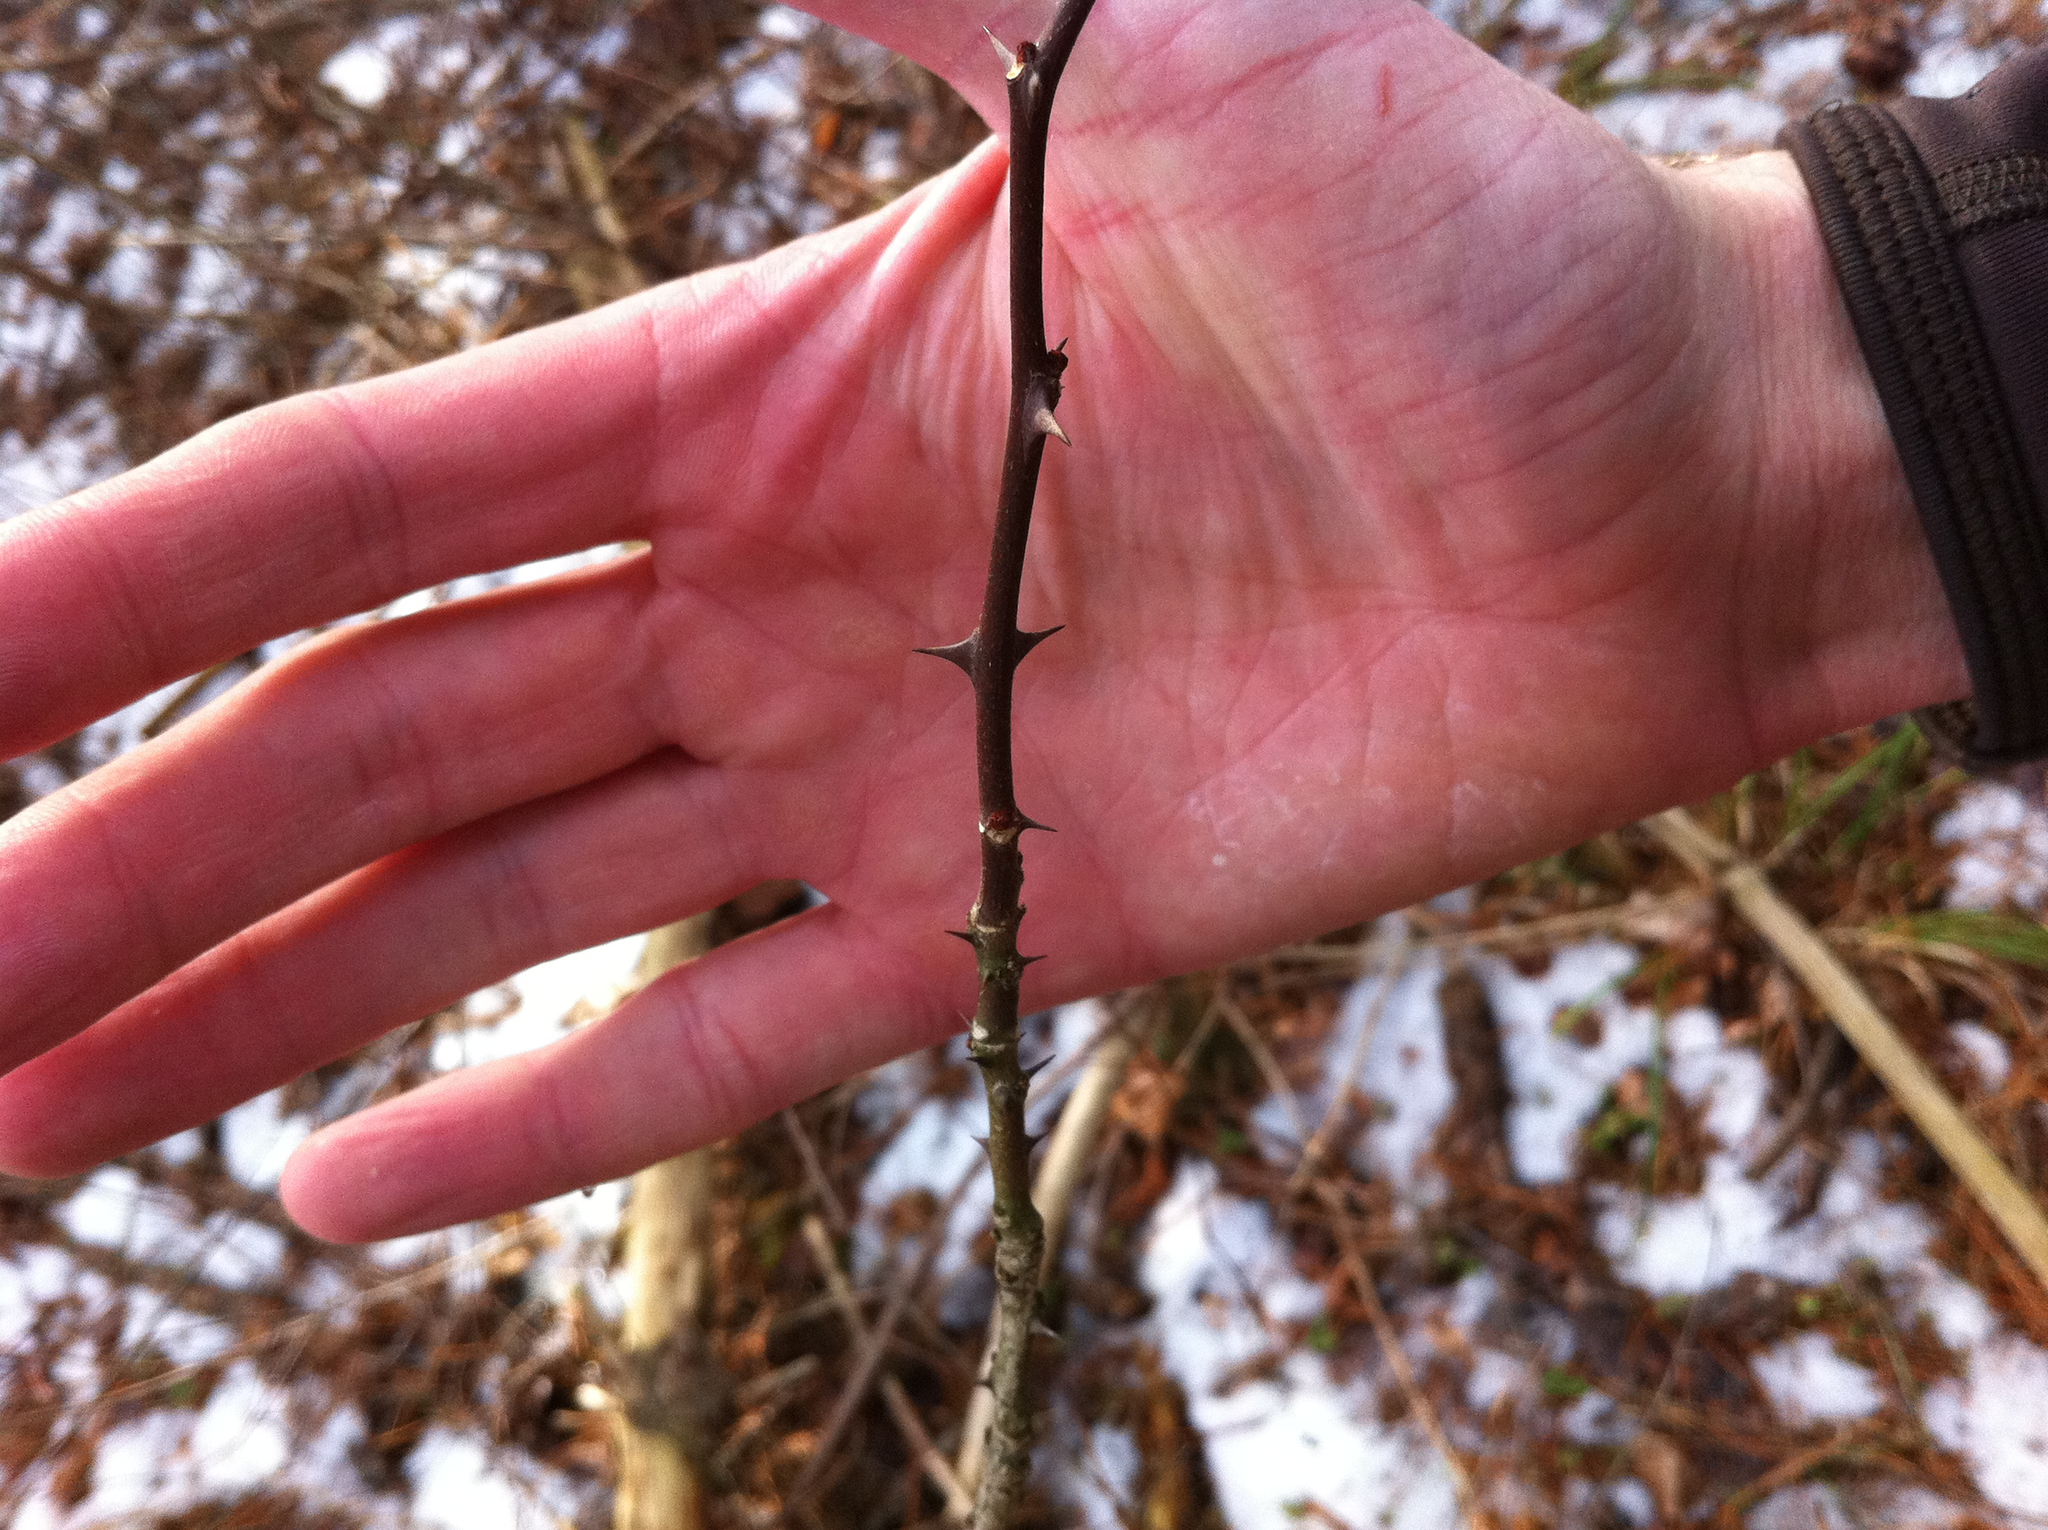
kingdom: Plantae
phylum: Tracheophyta
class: Magnoliopsida
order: Sapindales
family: Rutaceae
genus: Zanthoxylum
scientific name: Zanthoxylum americanum
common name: Northern prickly-ash
